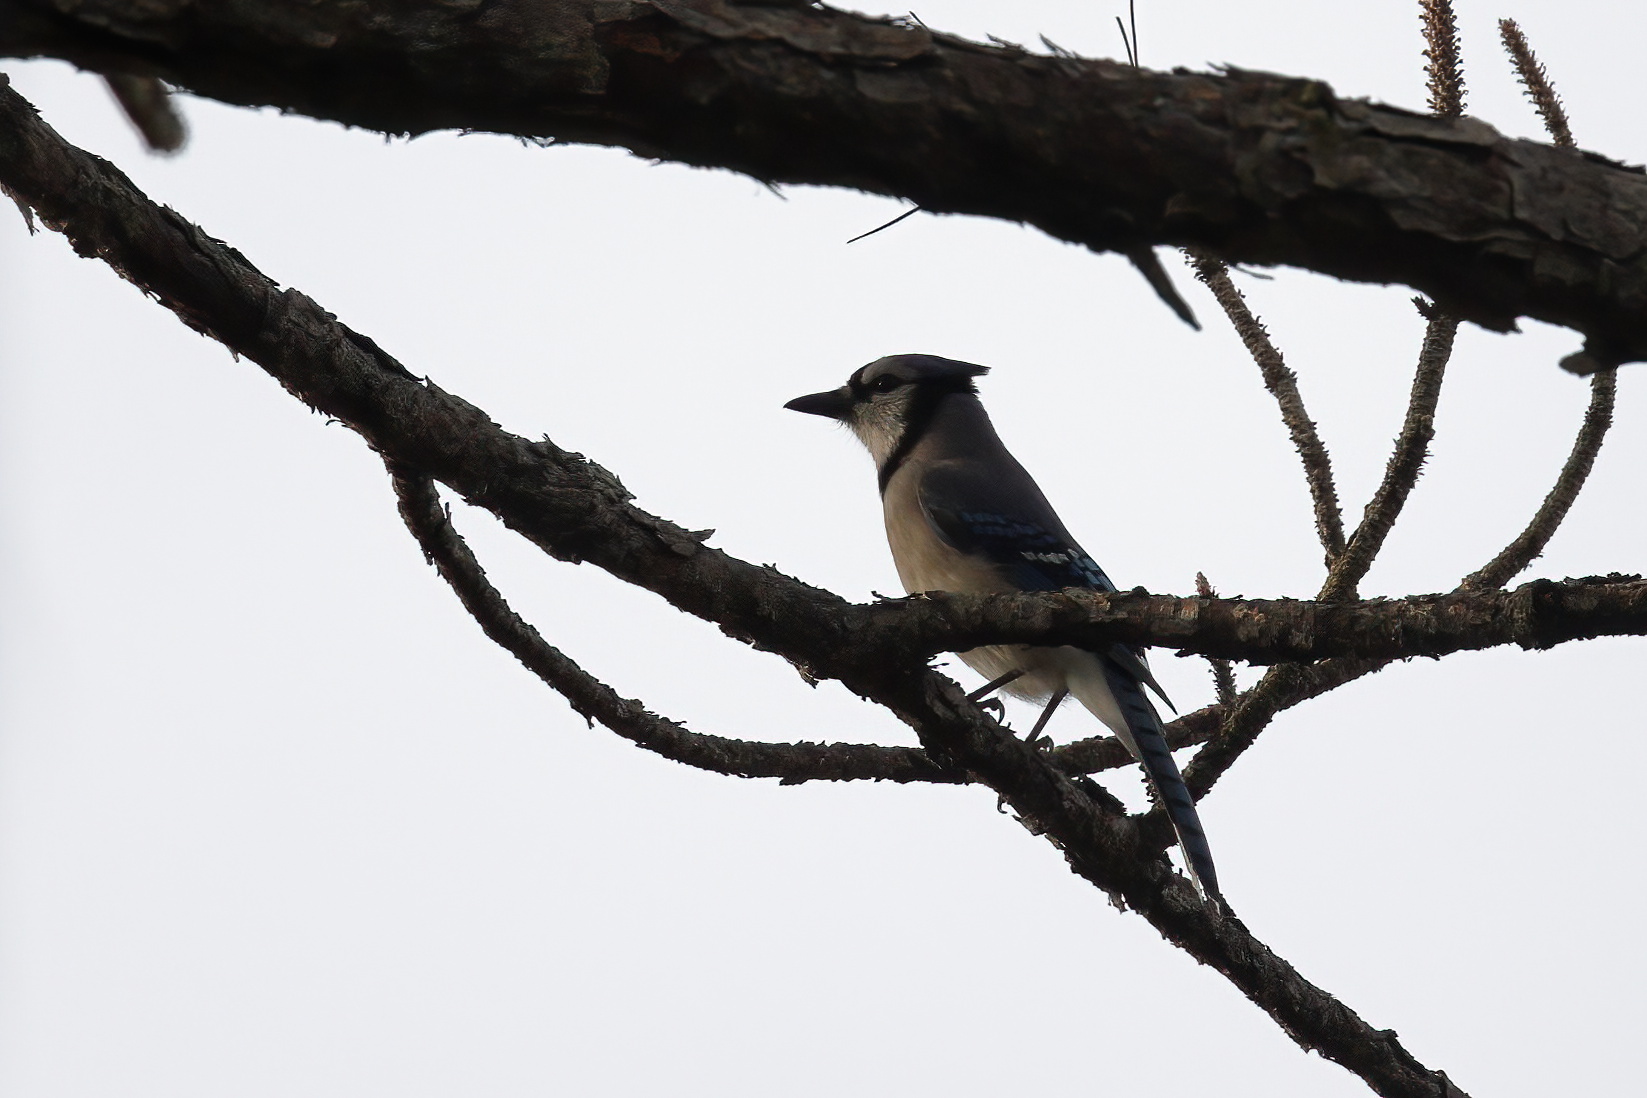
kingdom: Animalia
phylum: Chordata
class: Aves
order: Passeriformes
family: Corvidae
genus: Cyanocitta
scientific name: Cyanocitta cristata
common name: Blue jay
